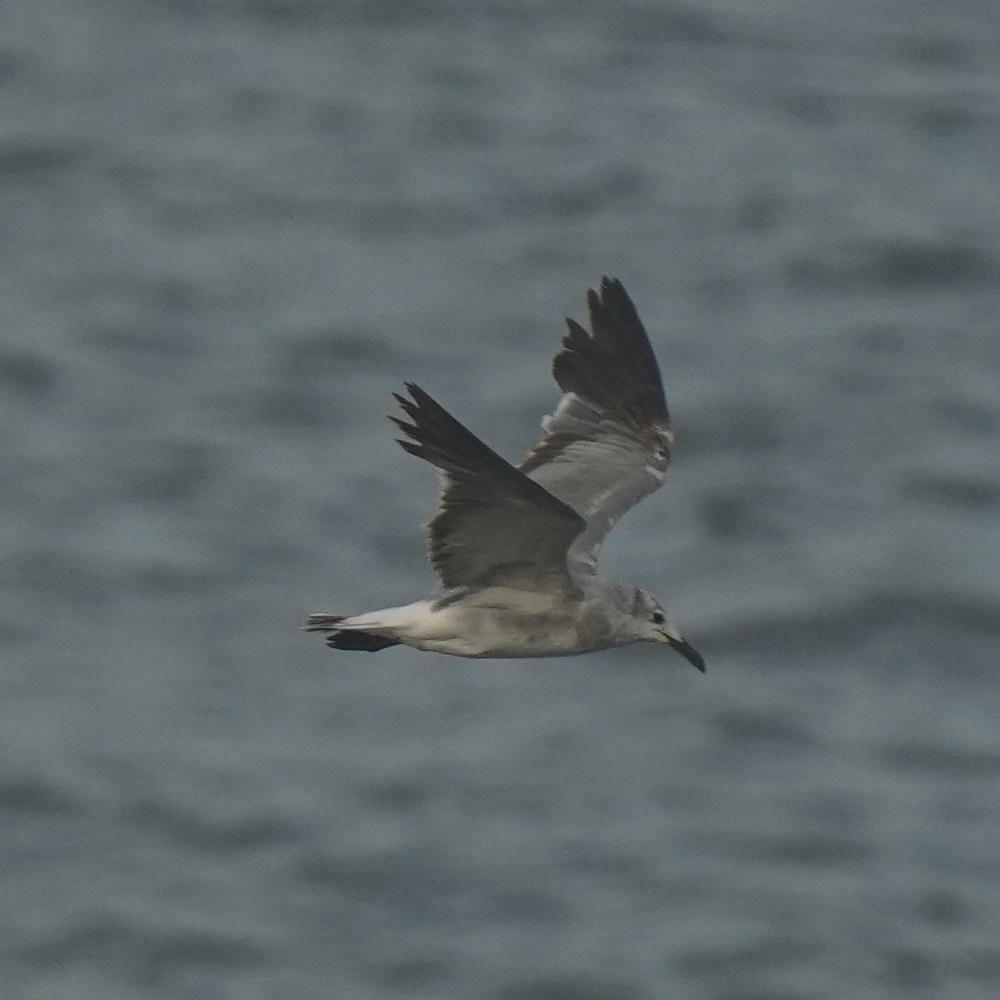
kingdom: Animalia
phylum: Chordata
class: Aves
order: Charadriiformes
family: Laridae
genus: Leucophaeus
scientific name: Leucophaeus atricilla
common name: Laughing gull
